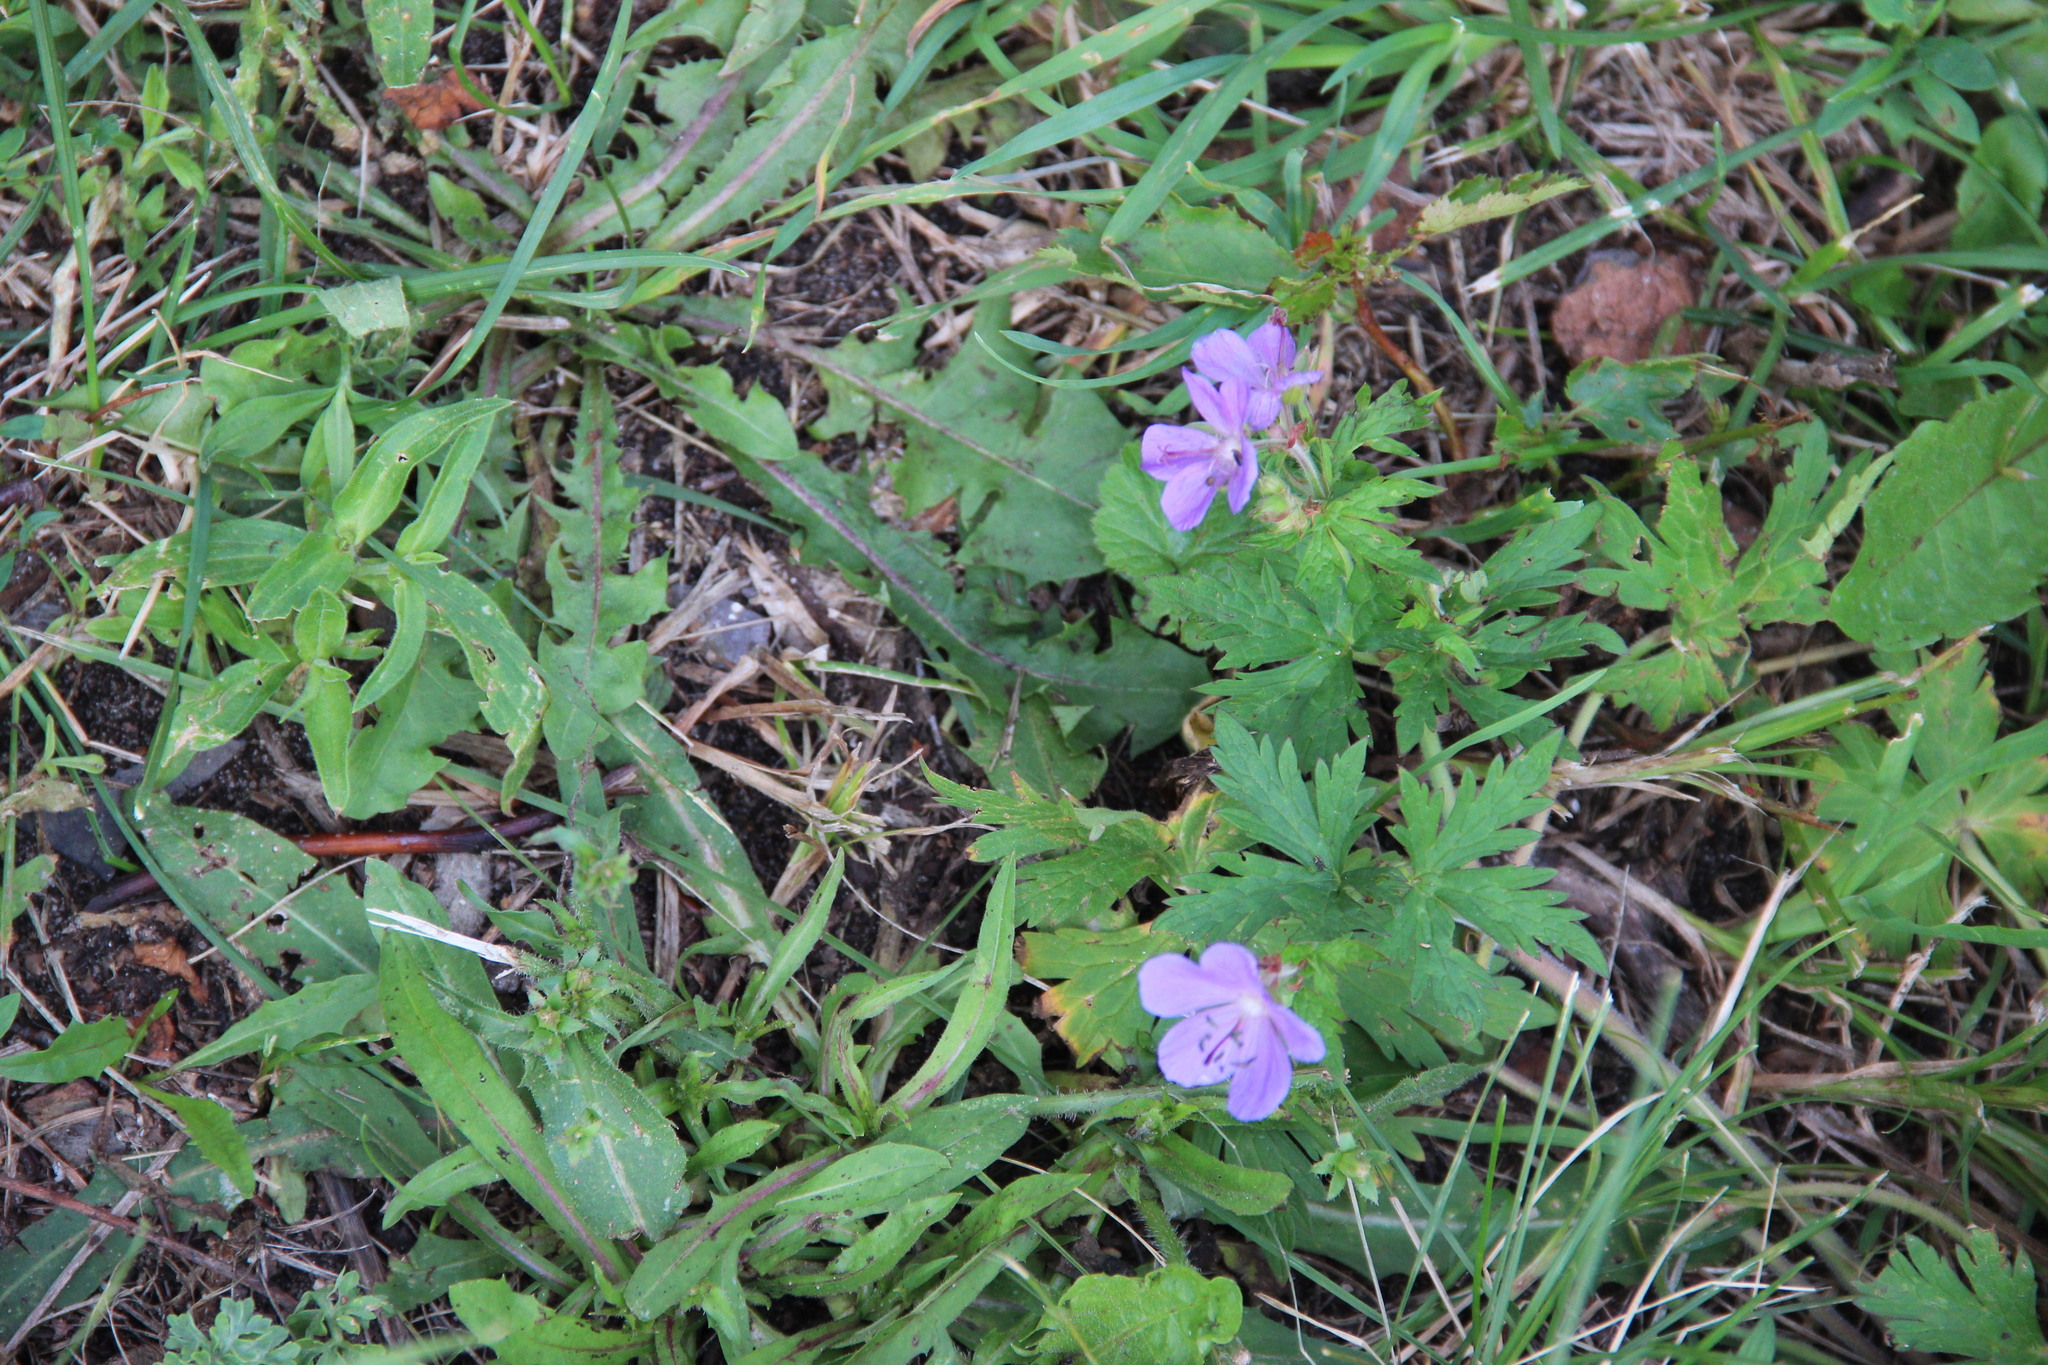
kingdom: Plantae
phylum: Tracheophyta
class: Magnoliopsida
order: Geraniales
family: Geraniaceae
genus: Geranium
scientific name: Geranium pratense
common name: Meadow crane's-bill
